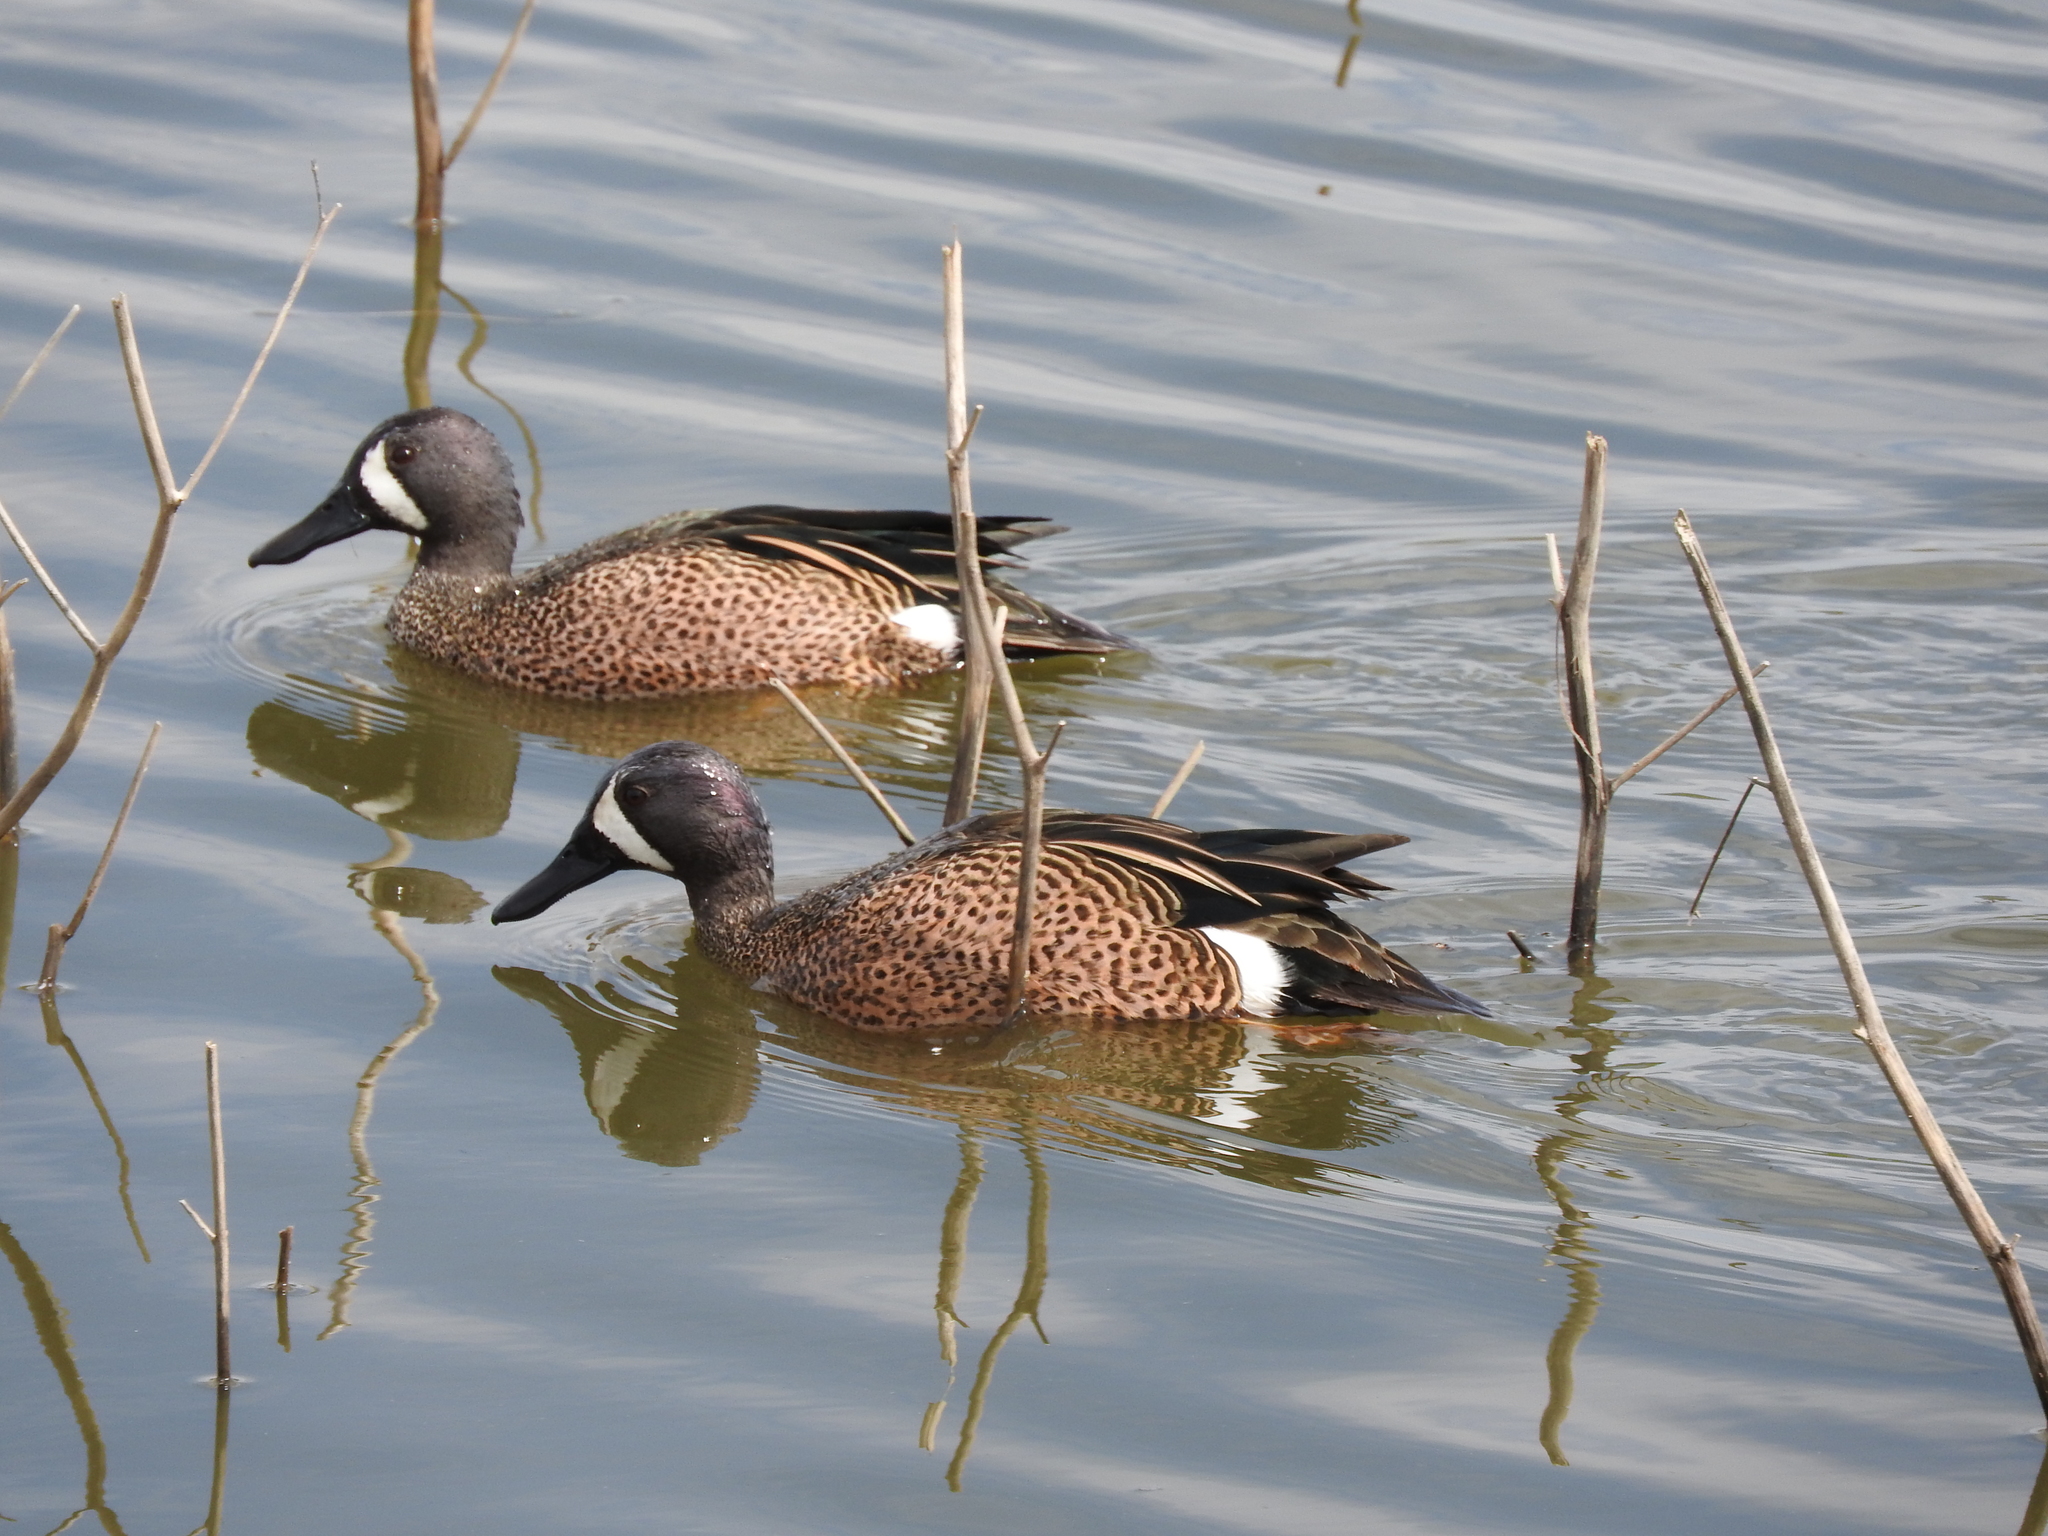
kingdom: Animalia
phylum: Chordata
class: Aves
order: Anseriformes
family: Anatidae
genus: Spatula
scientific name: Spatula discors
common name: Blue-winged teal
